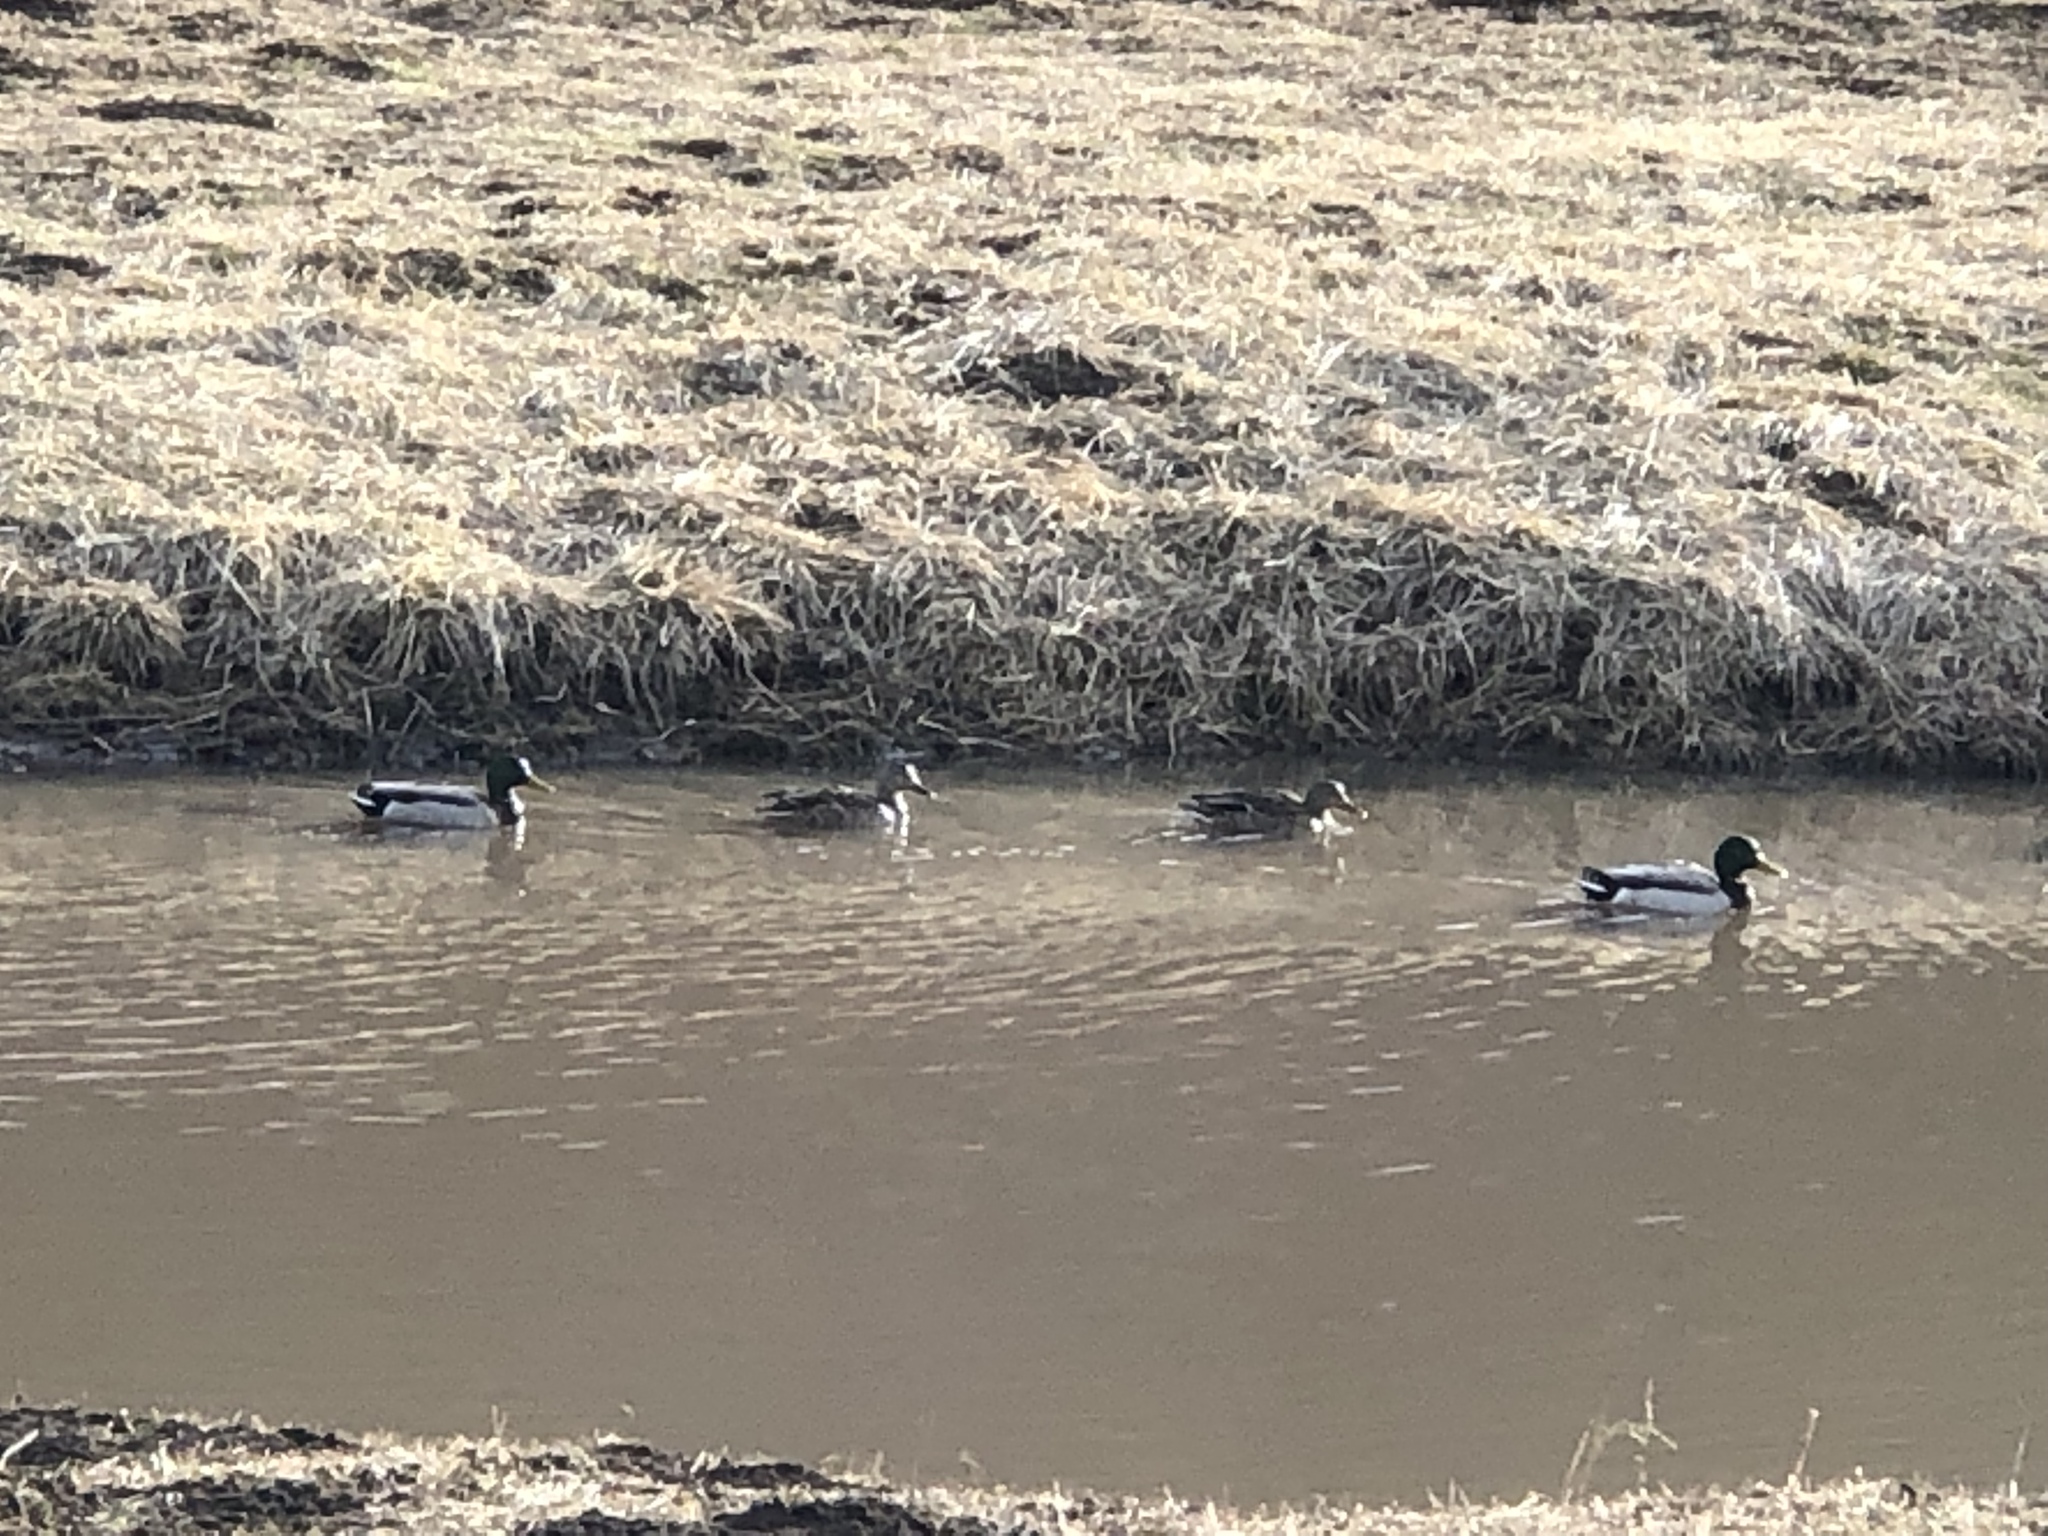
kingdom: Animalia
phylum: Chordata
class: Aves
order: Anseriformes
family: Anatidae
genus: Anas
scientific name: Anas platyrhynchos
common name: Mallard
